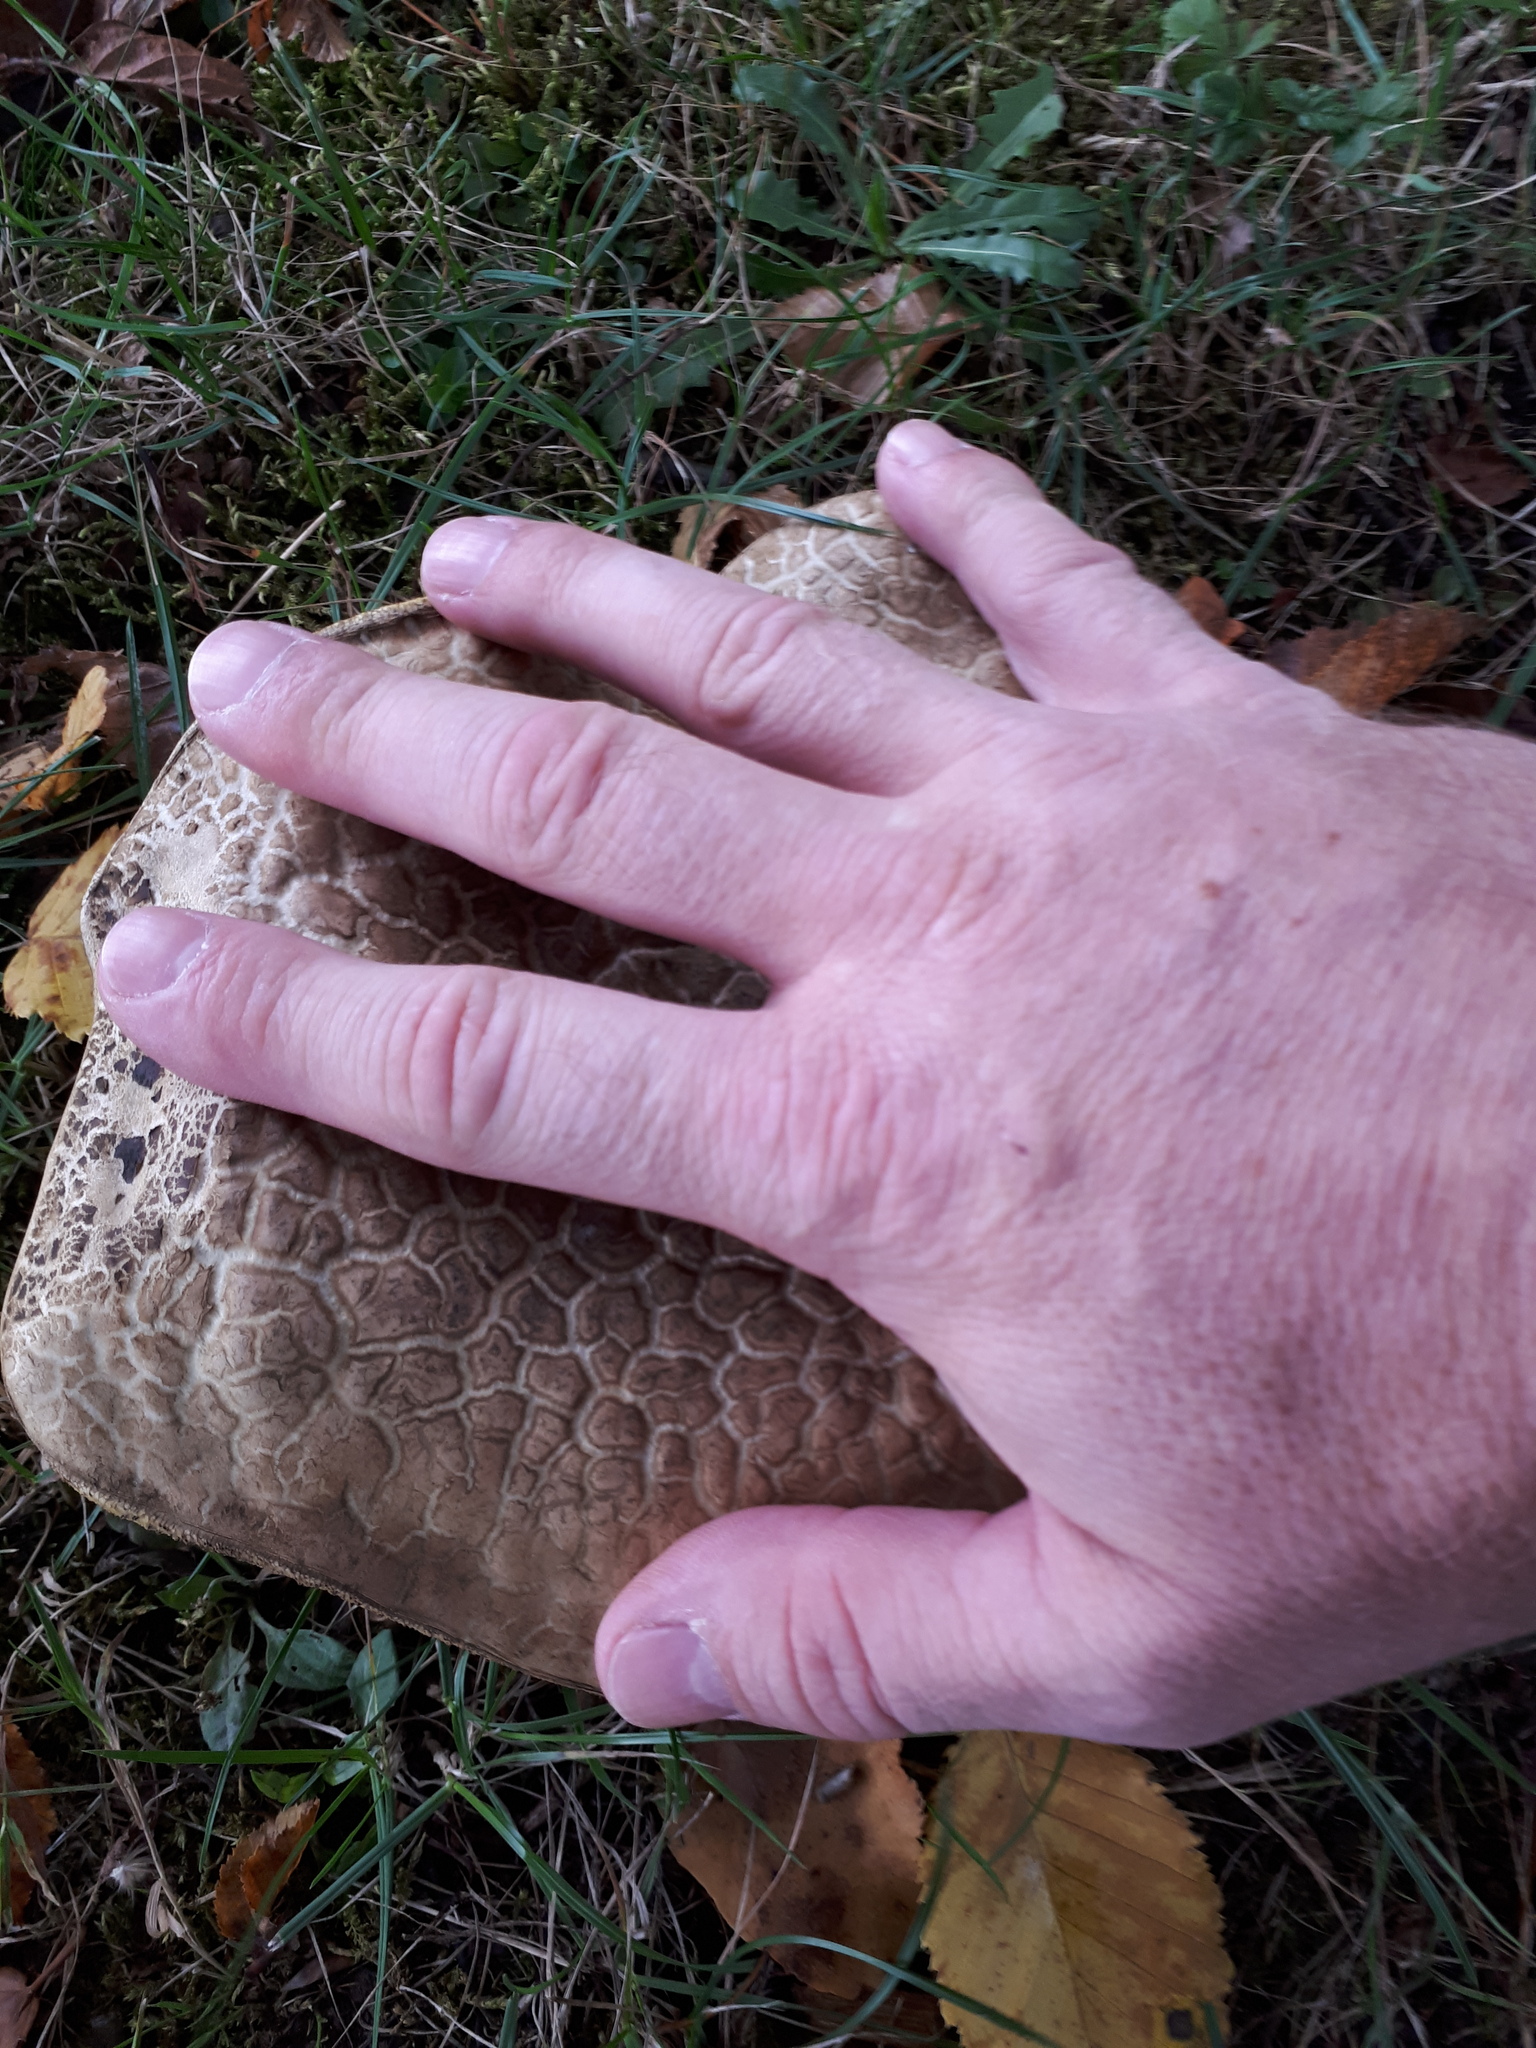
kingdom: Fungi
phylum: Basidiomycota
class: Agaricomycetes
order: Boletales
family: Boletaceae
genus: Caloboletus
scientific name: Caloboletus radicans
